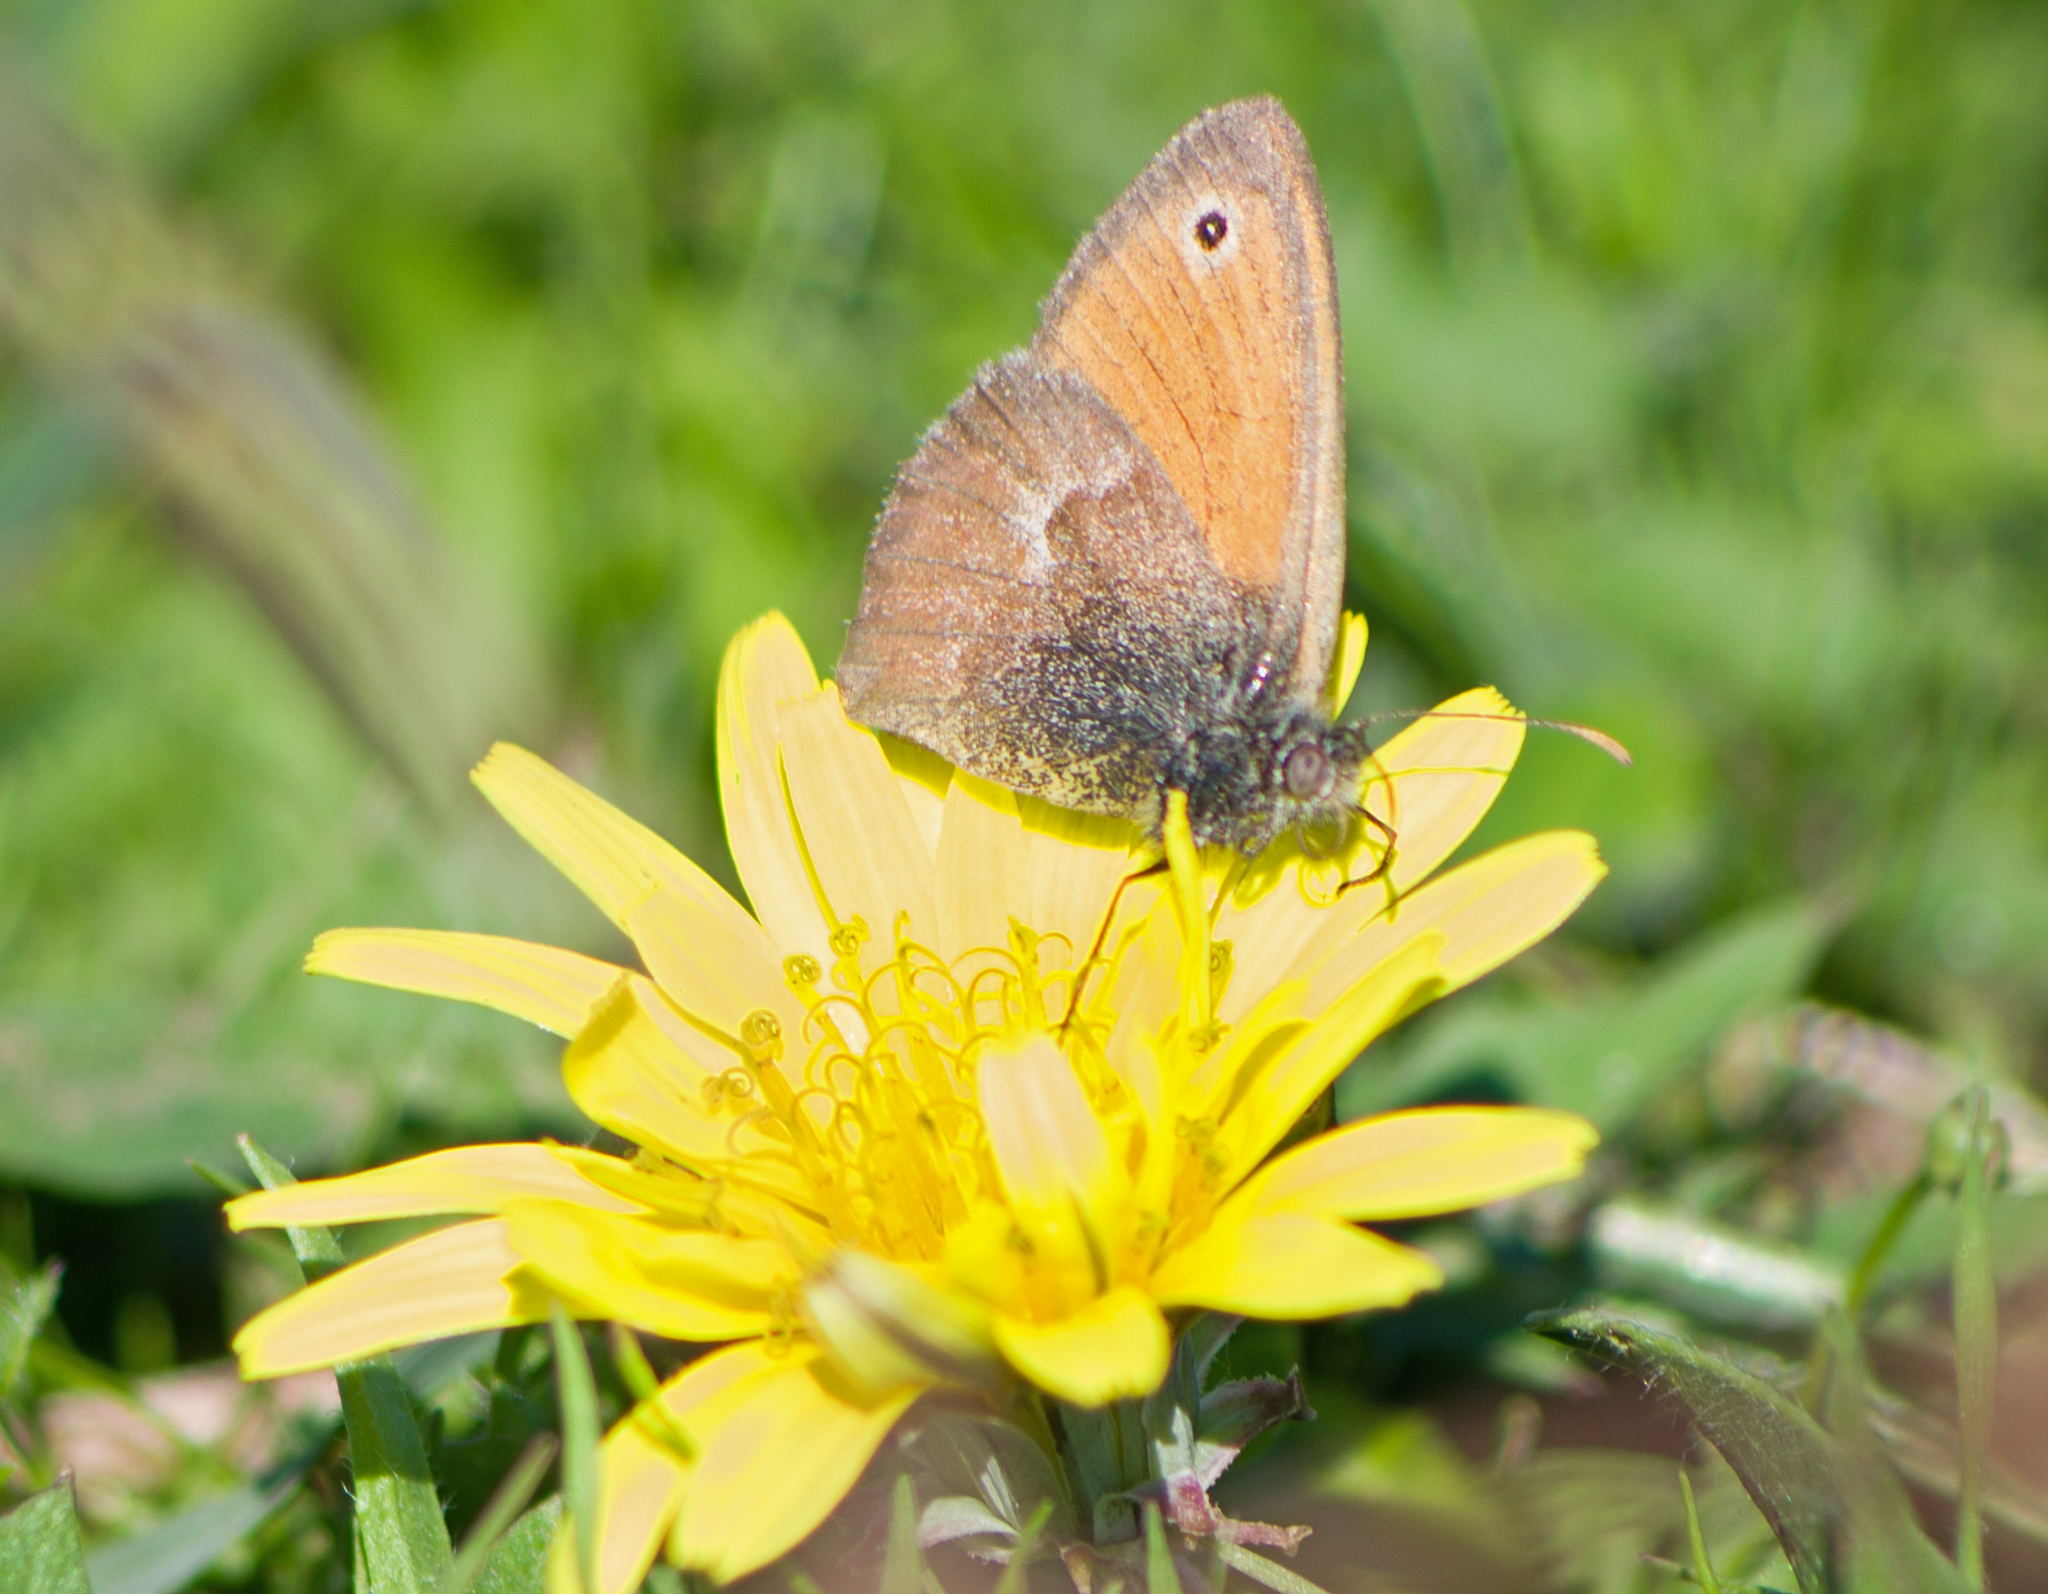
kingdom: Animalia
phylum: Arthropoda
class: Insecta
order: Lepidoptera
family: Nymphalidae
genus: Coenonympha
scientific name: Coenonympha pamphilus
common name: Small heath
